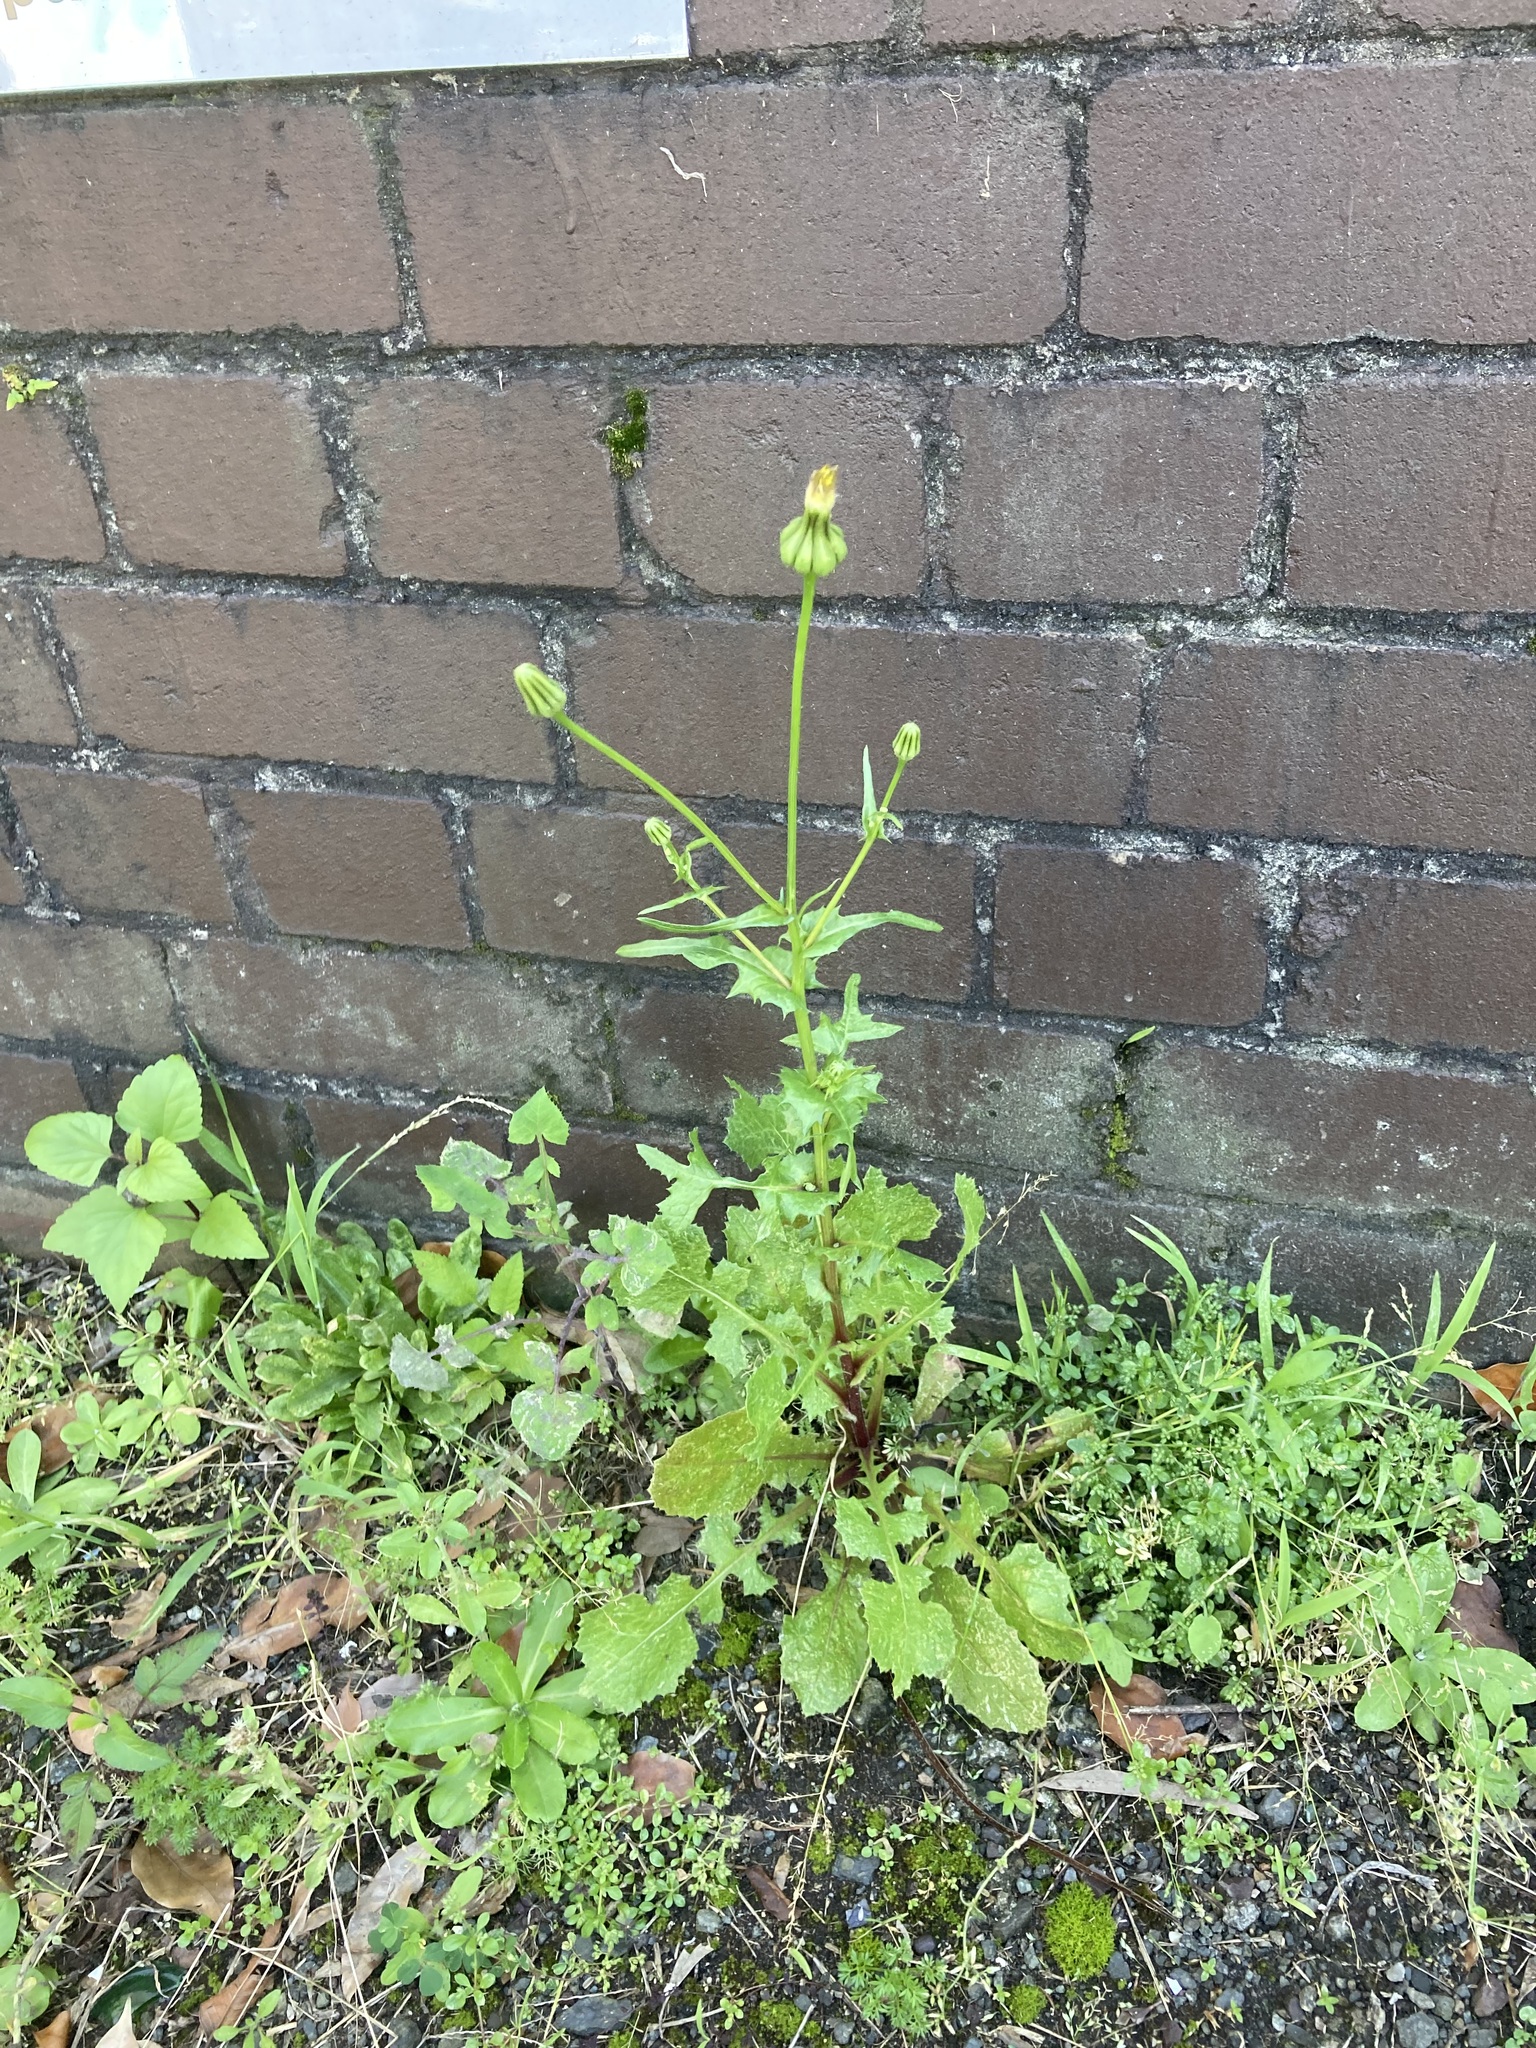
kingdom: Plantae
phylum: Tracheophyta
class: Magnoliopsida
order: Asterales
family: Asteraceae
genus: Urospermum
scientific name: Urospermum picroides
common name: False hawkbit
